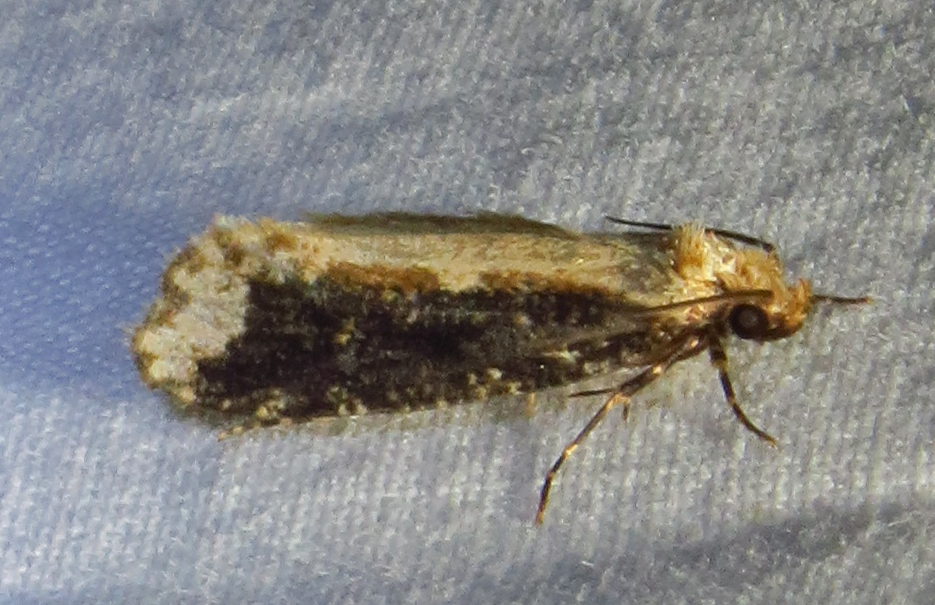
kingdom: Animalia
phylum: Arthropoda
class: Insecta
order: Lepidoptera
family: Tineidae
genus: Scardia
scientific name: Scardia amurensis
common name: Tineid moth
